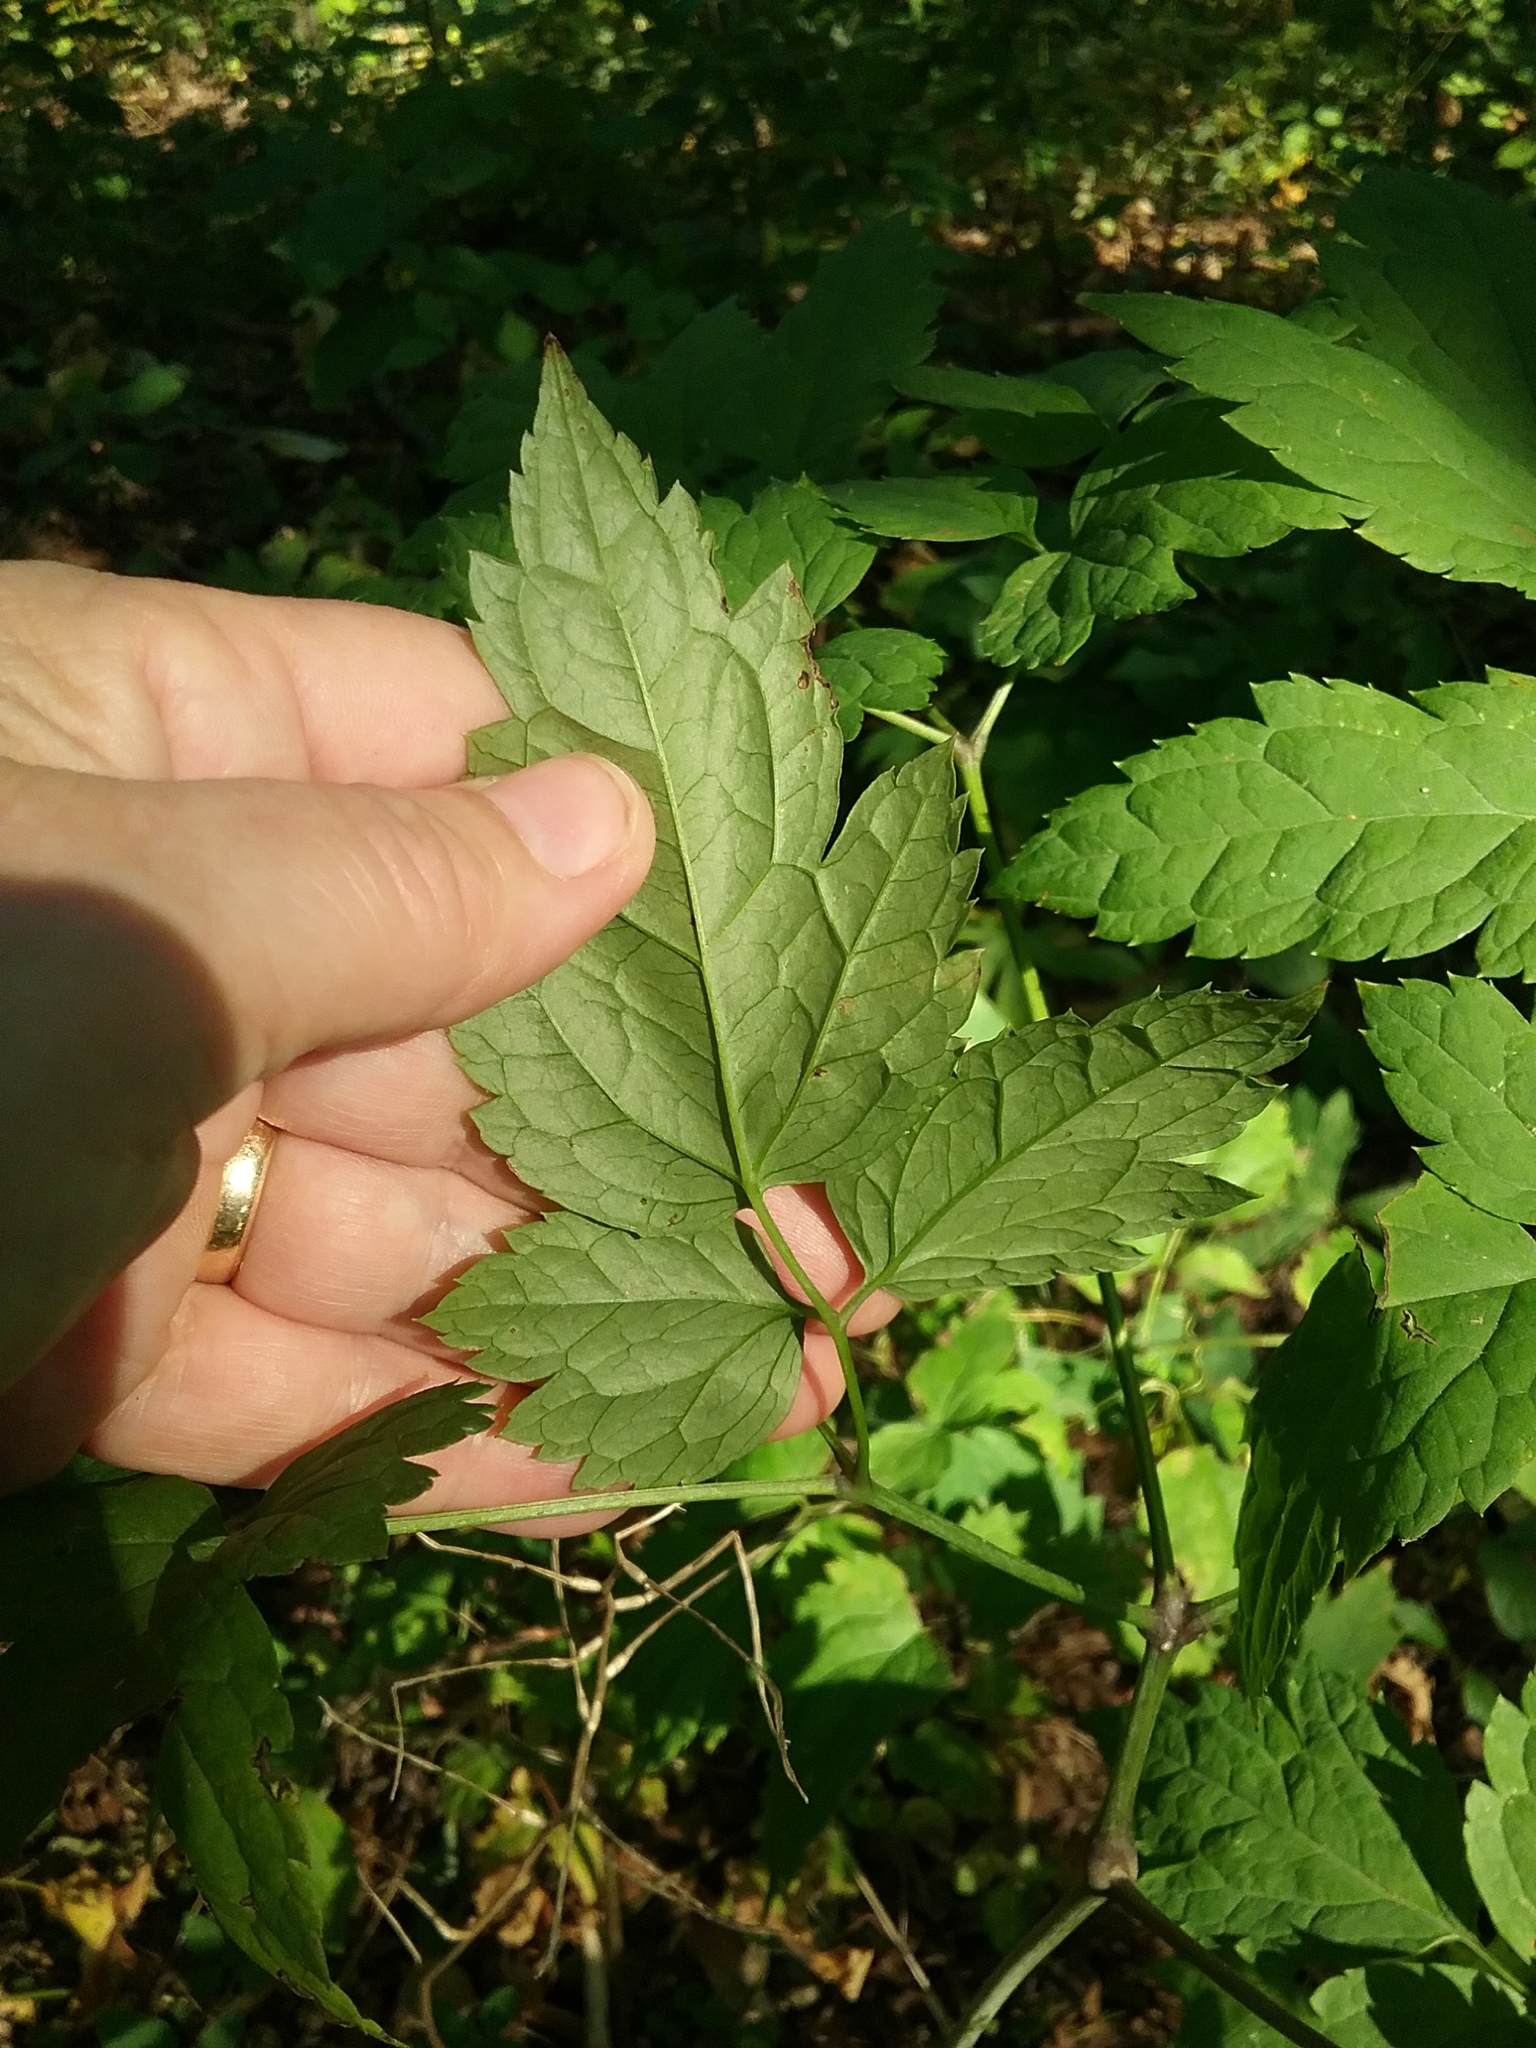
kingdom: Plantae
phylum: Tracheophyta
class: Magnoliopsida
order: Ranunculales
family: Ranunculaceae
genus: Actaea
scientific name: Actaea pachypoda
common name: Doll's-eyes
